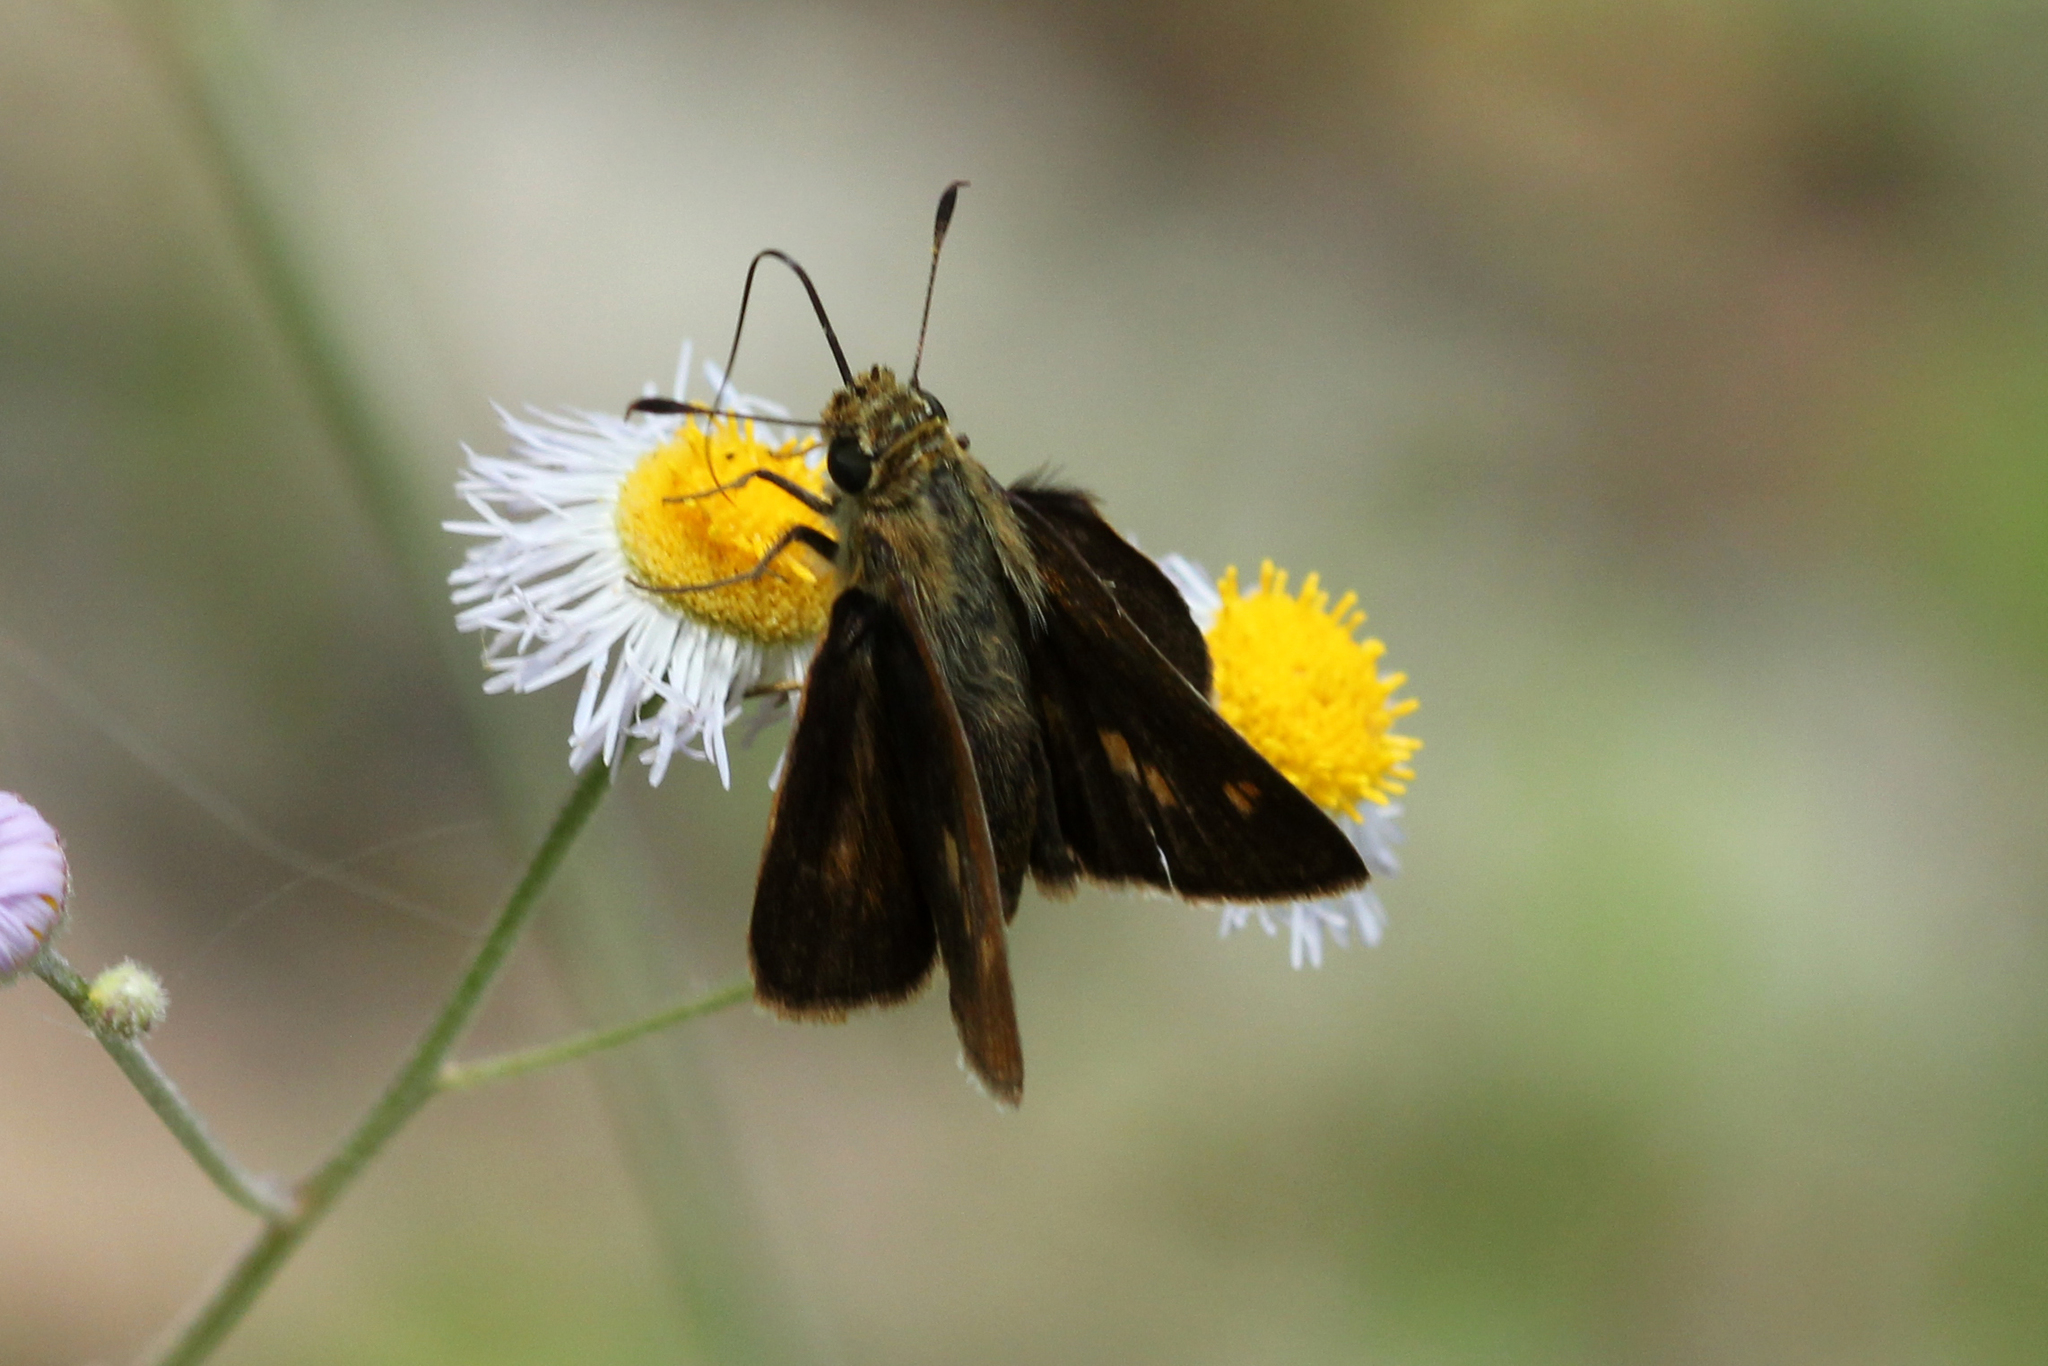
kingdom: Animalia
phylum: Arthropoda
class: Insecta
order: Lepidoptera
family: Hesperiidae
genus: Polites
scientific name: Polites otho
